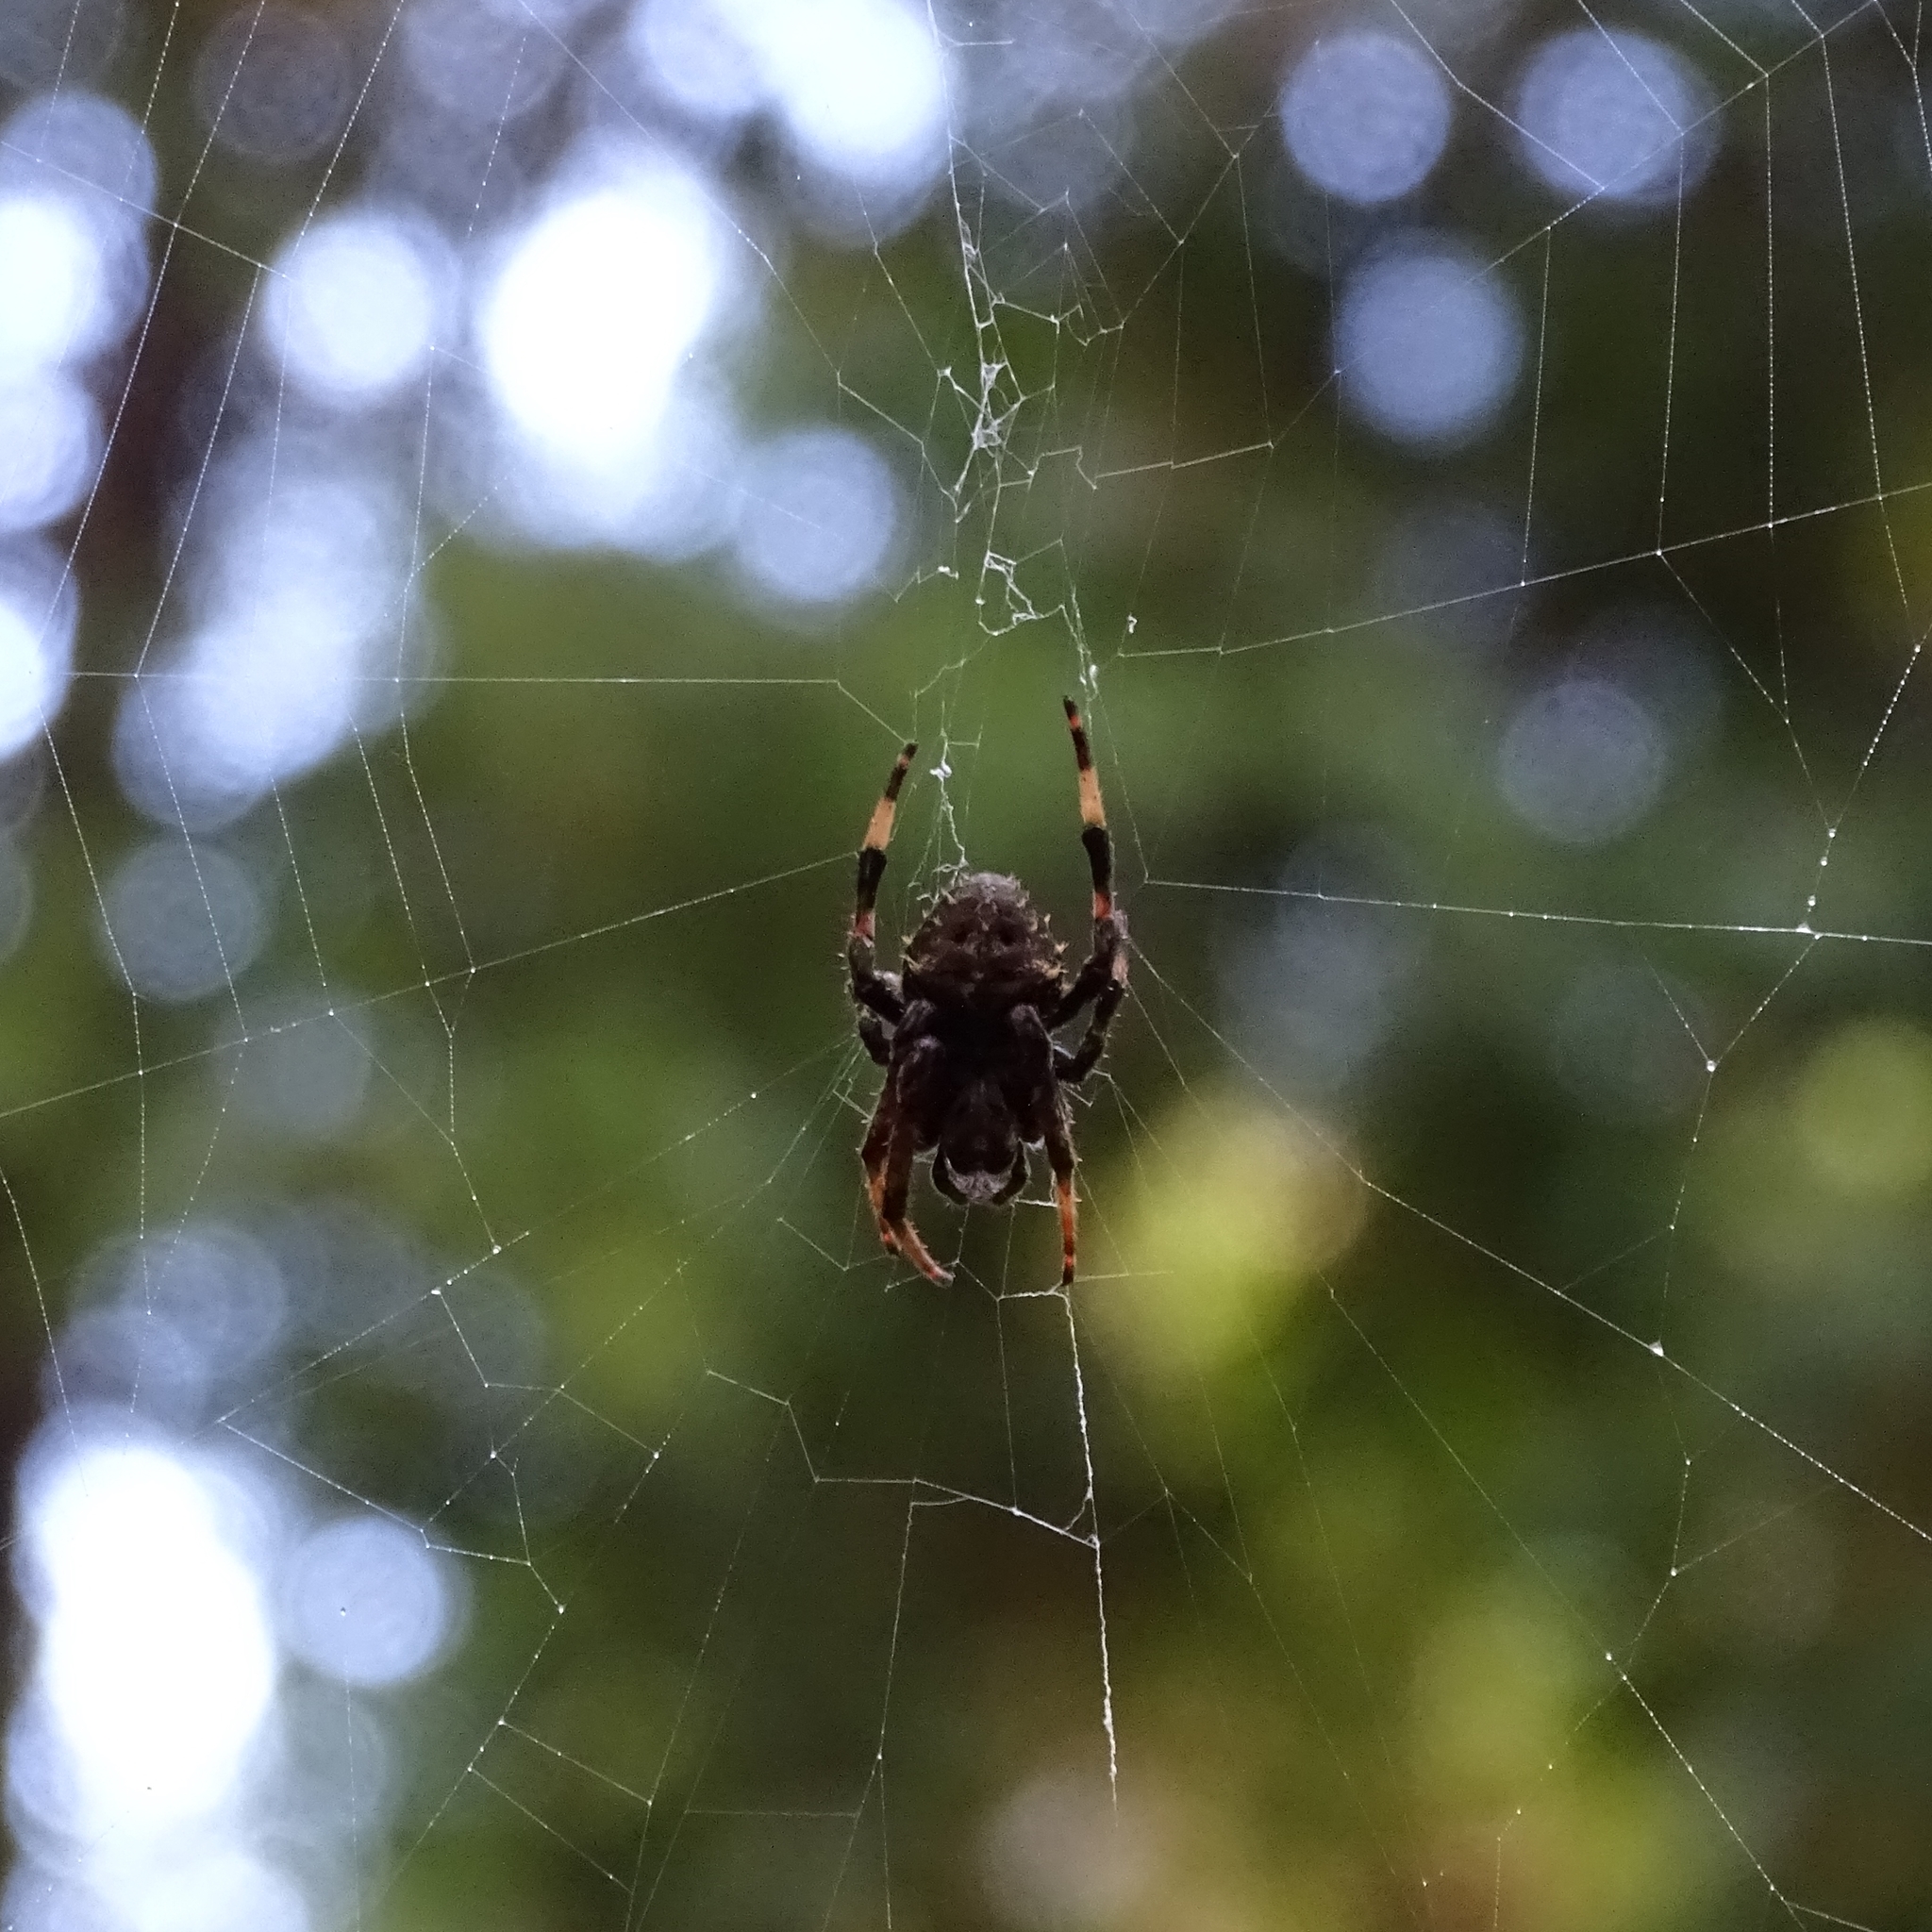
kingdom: Animalia
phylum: Arthropoda
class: Arachnida
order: Araneae
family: Araneidae
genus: Molinaranea
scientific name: Molinaranea clymene
